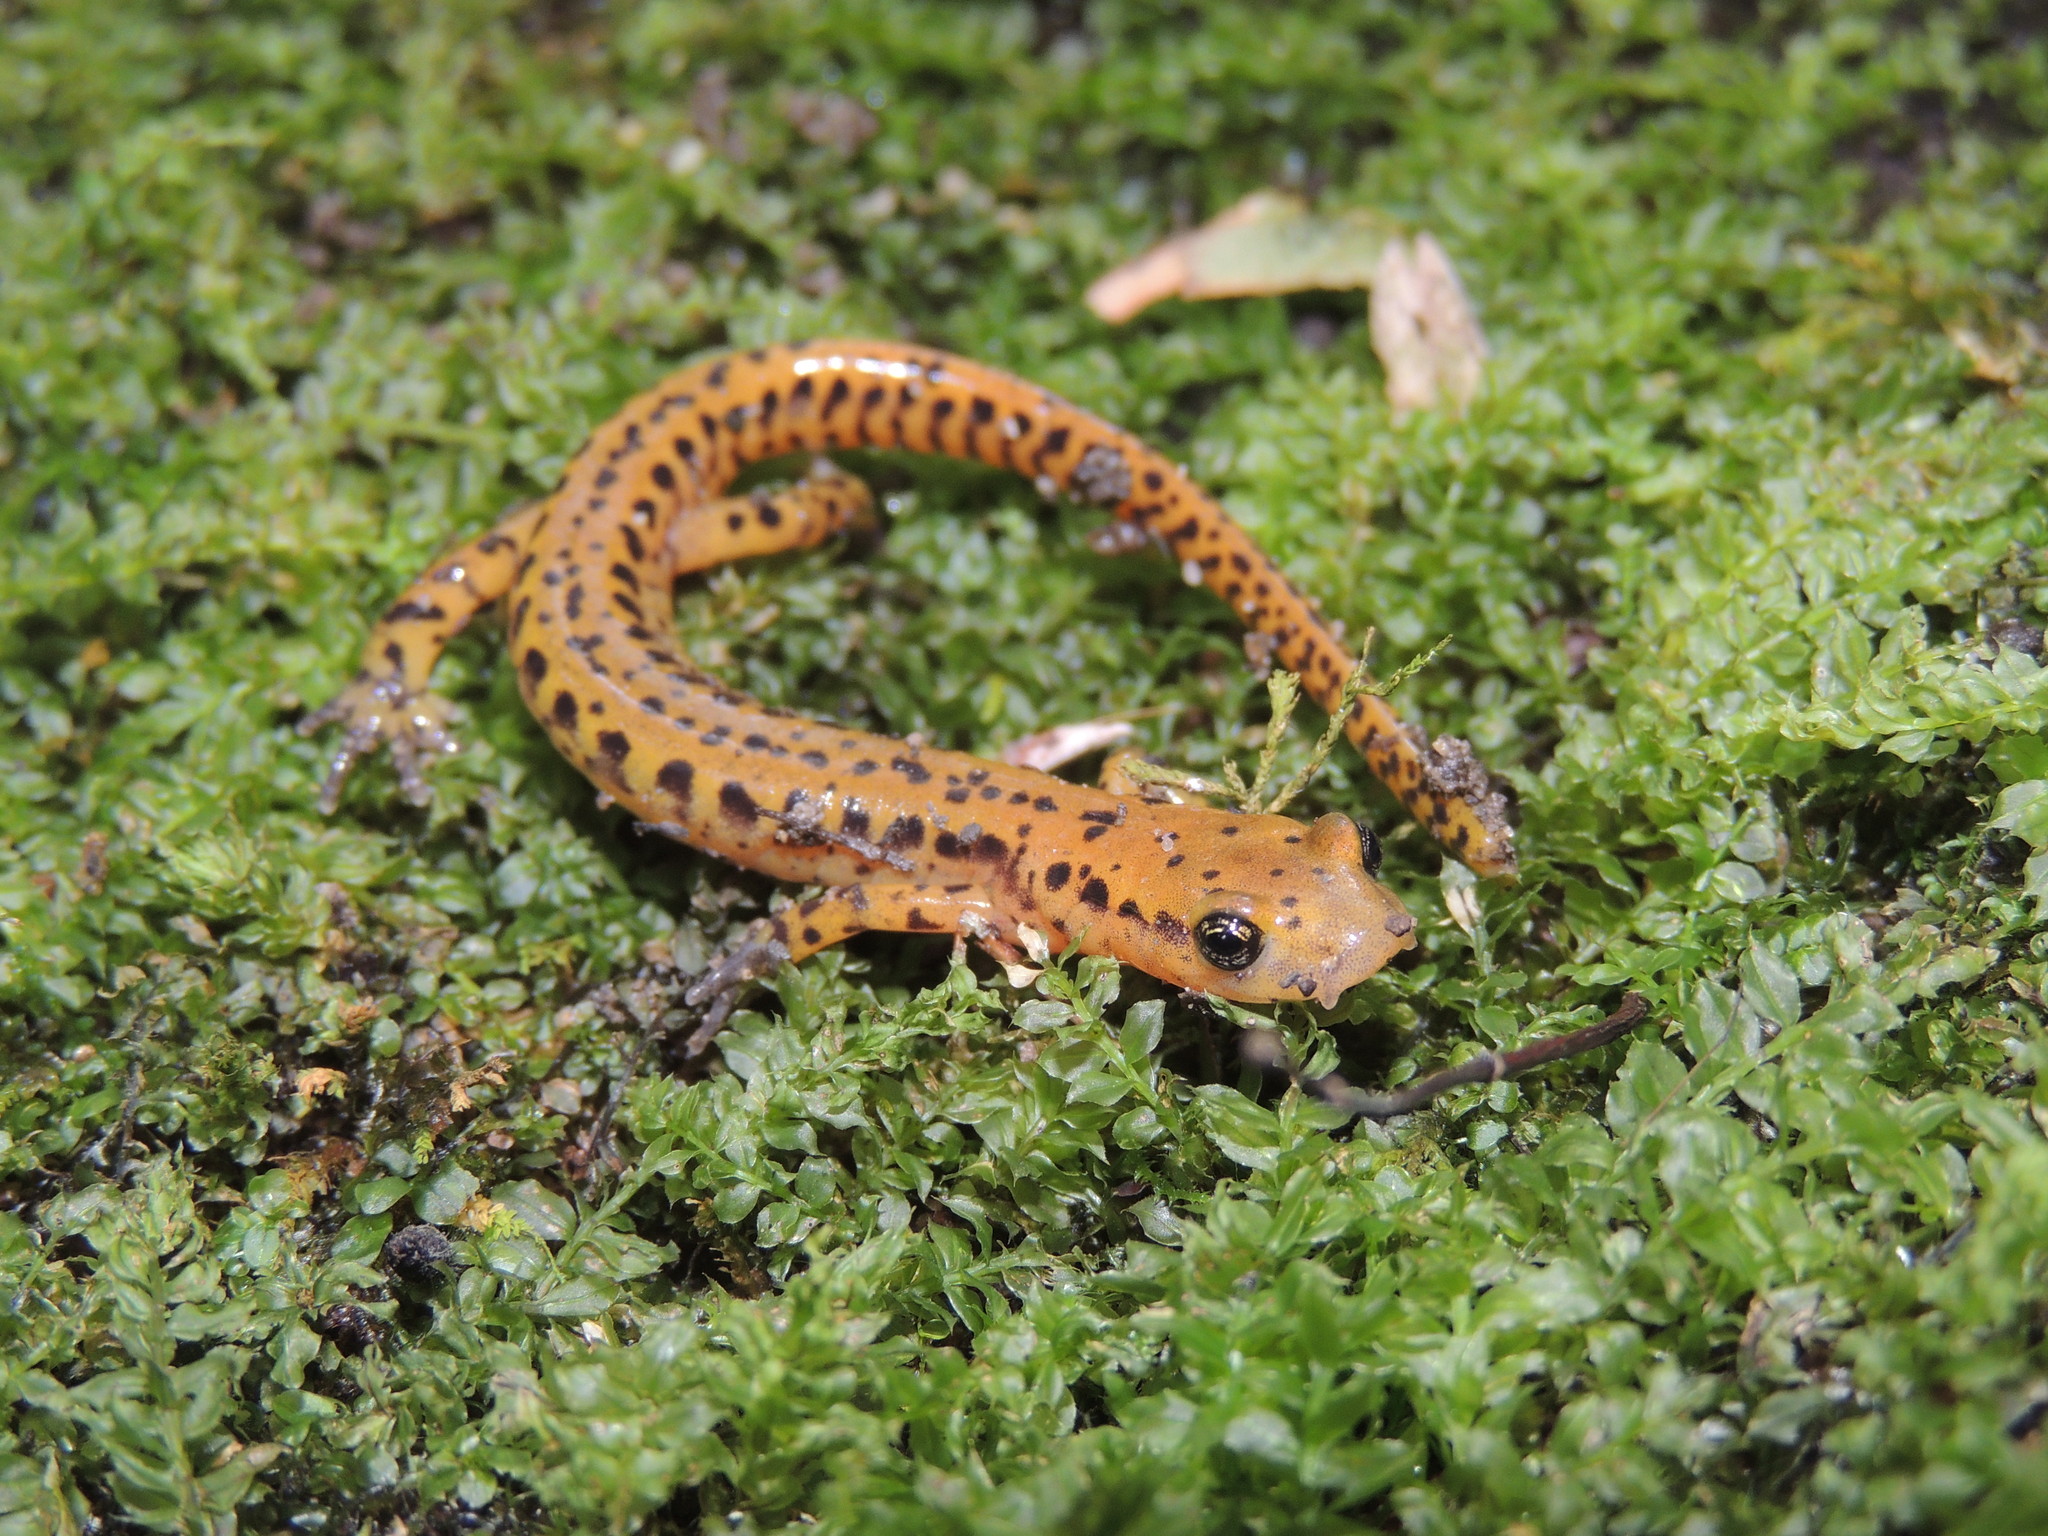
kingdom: Animalia
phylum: Chordata
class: Amphibia
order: Caudata
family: Plethodontidae
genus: Eurycea
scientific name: Eurycea longicauda
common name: Long-tailed salamander
